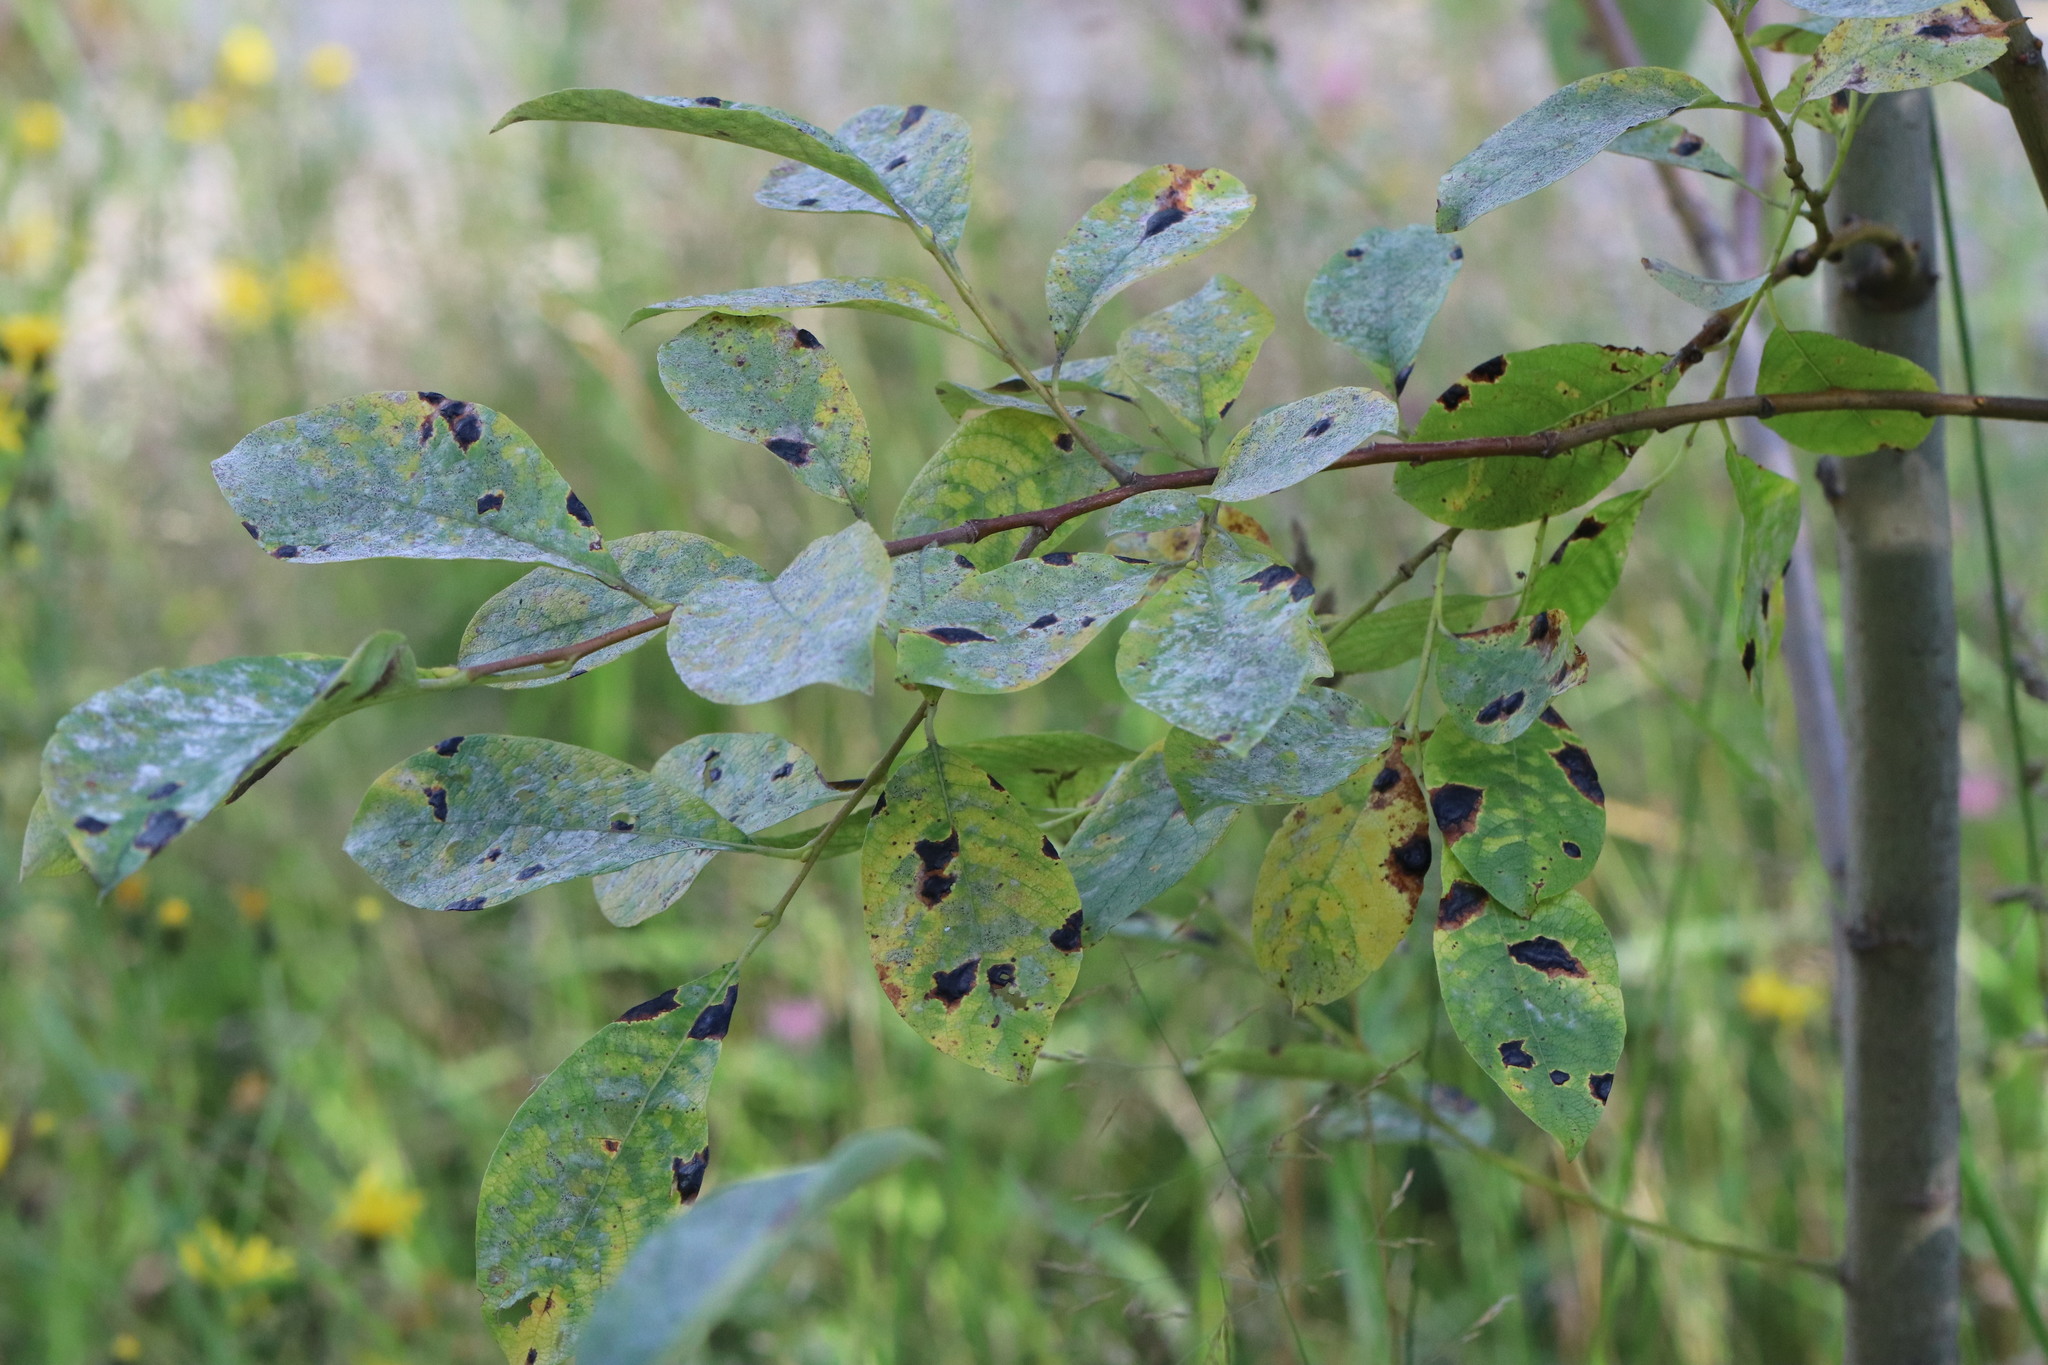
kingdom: Fungi
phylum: Ascomycota
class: Leotiomycetes
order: Rhytismatales
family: Rhytismataceae
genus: Rhytisma
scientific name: Rhytisma salicinum
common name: Willow tarspot
